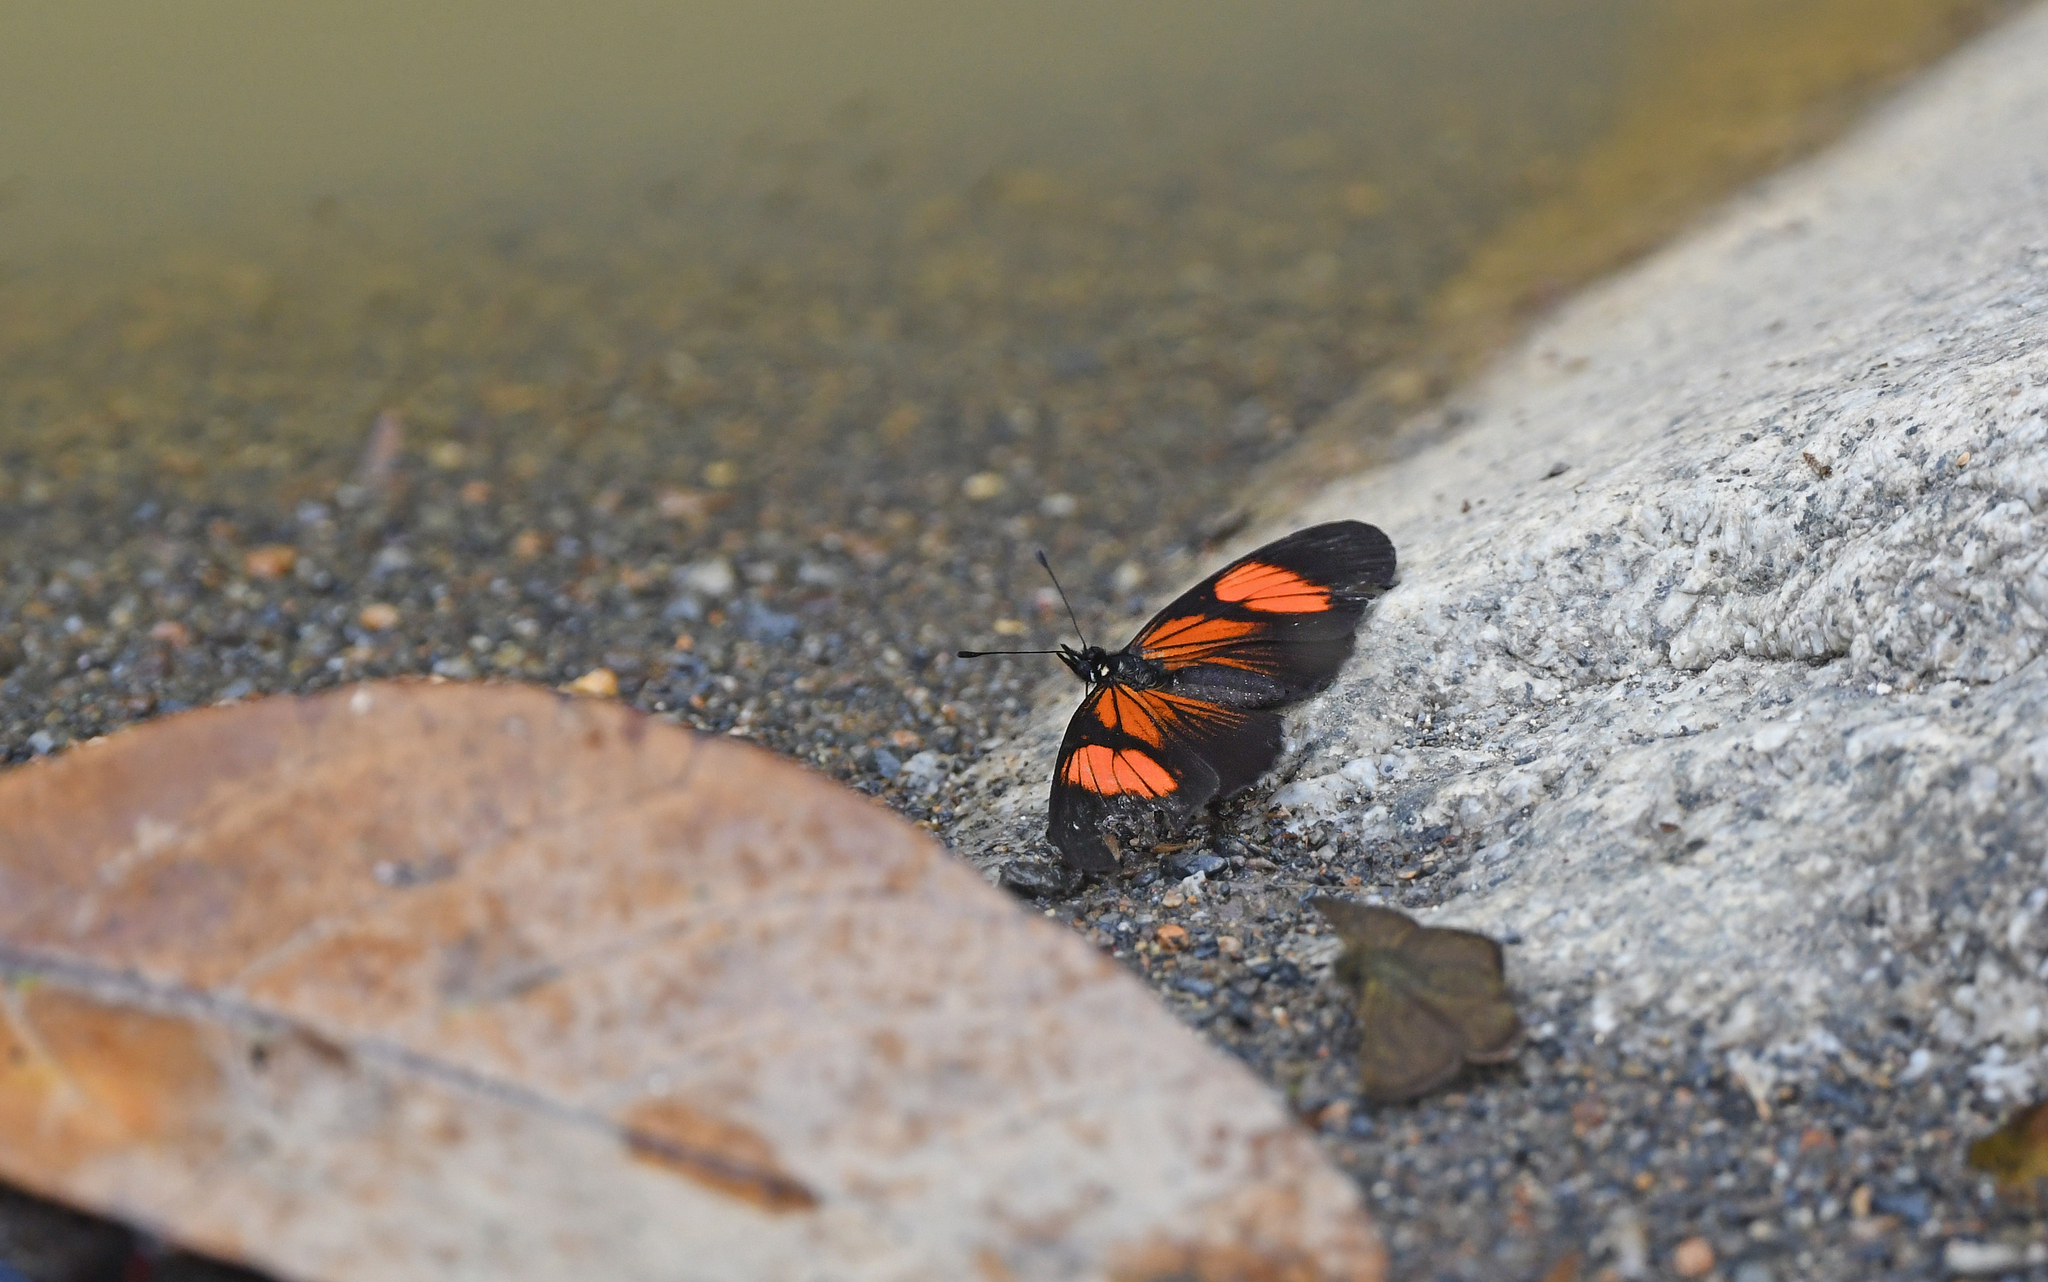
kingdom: Animalia
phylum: Arthropoda
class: Insecta
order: Lepidoptera
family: Nymphalidae
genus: Castilia
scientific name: Castilia perilla
